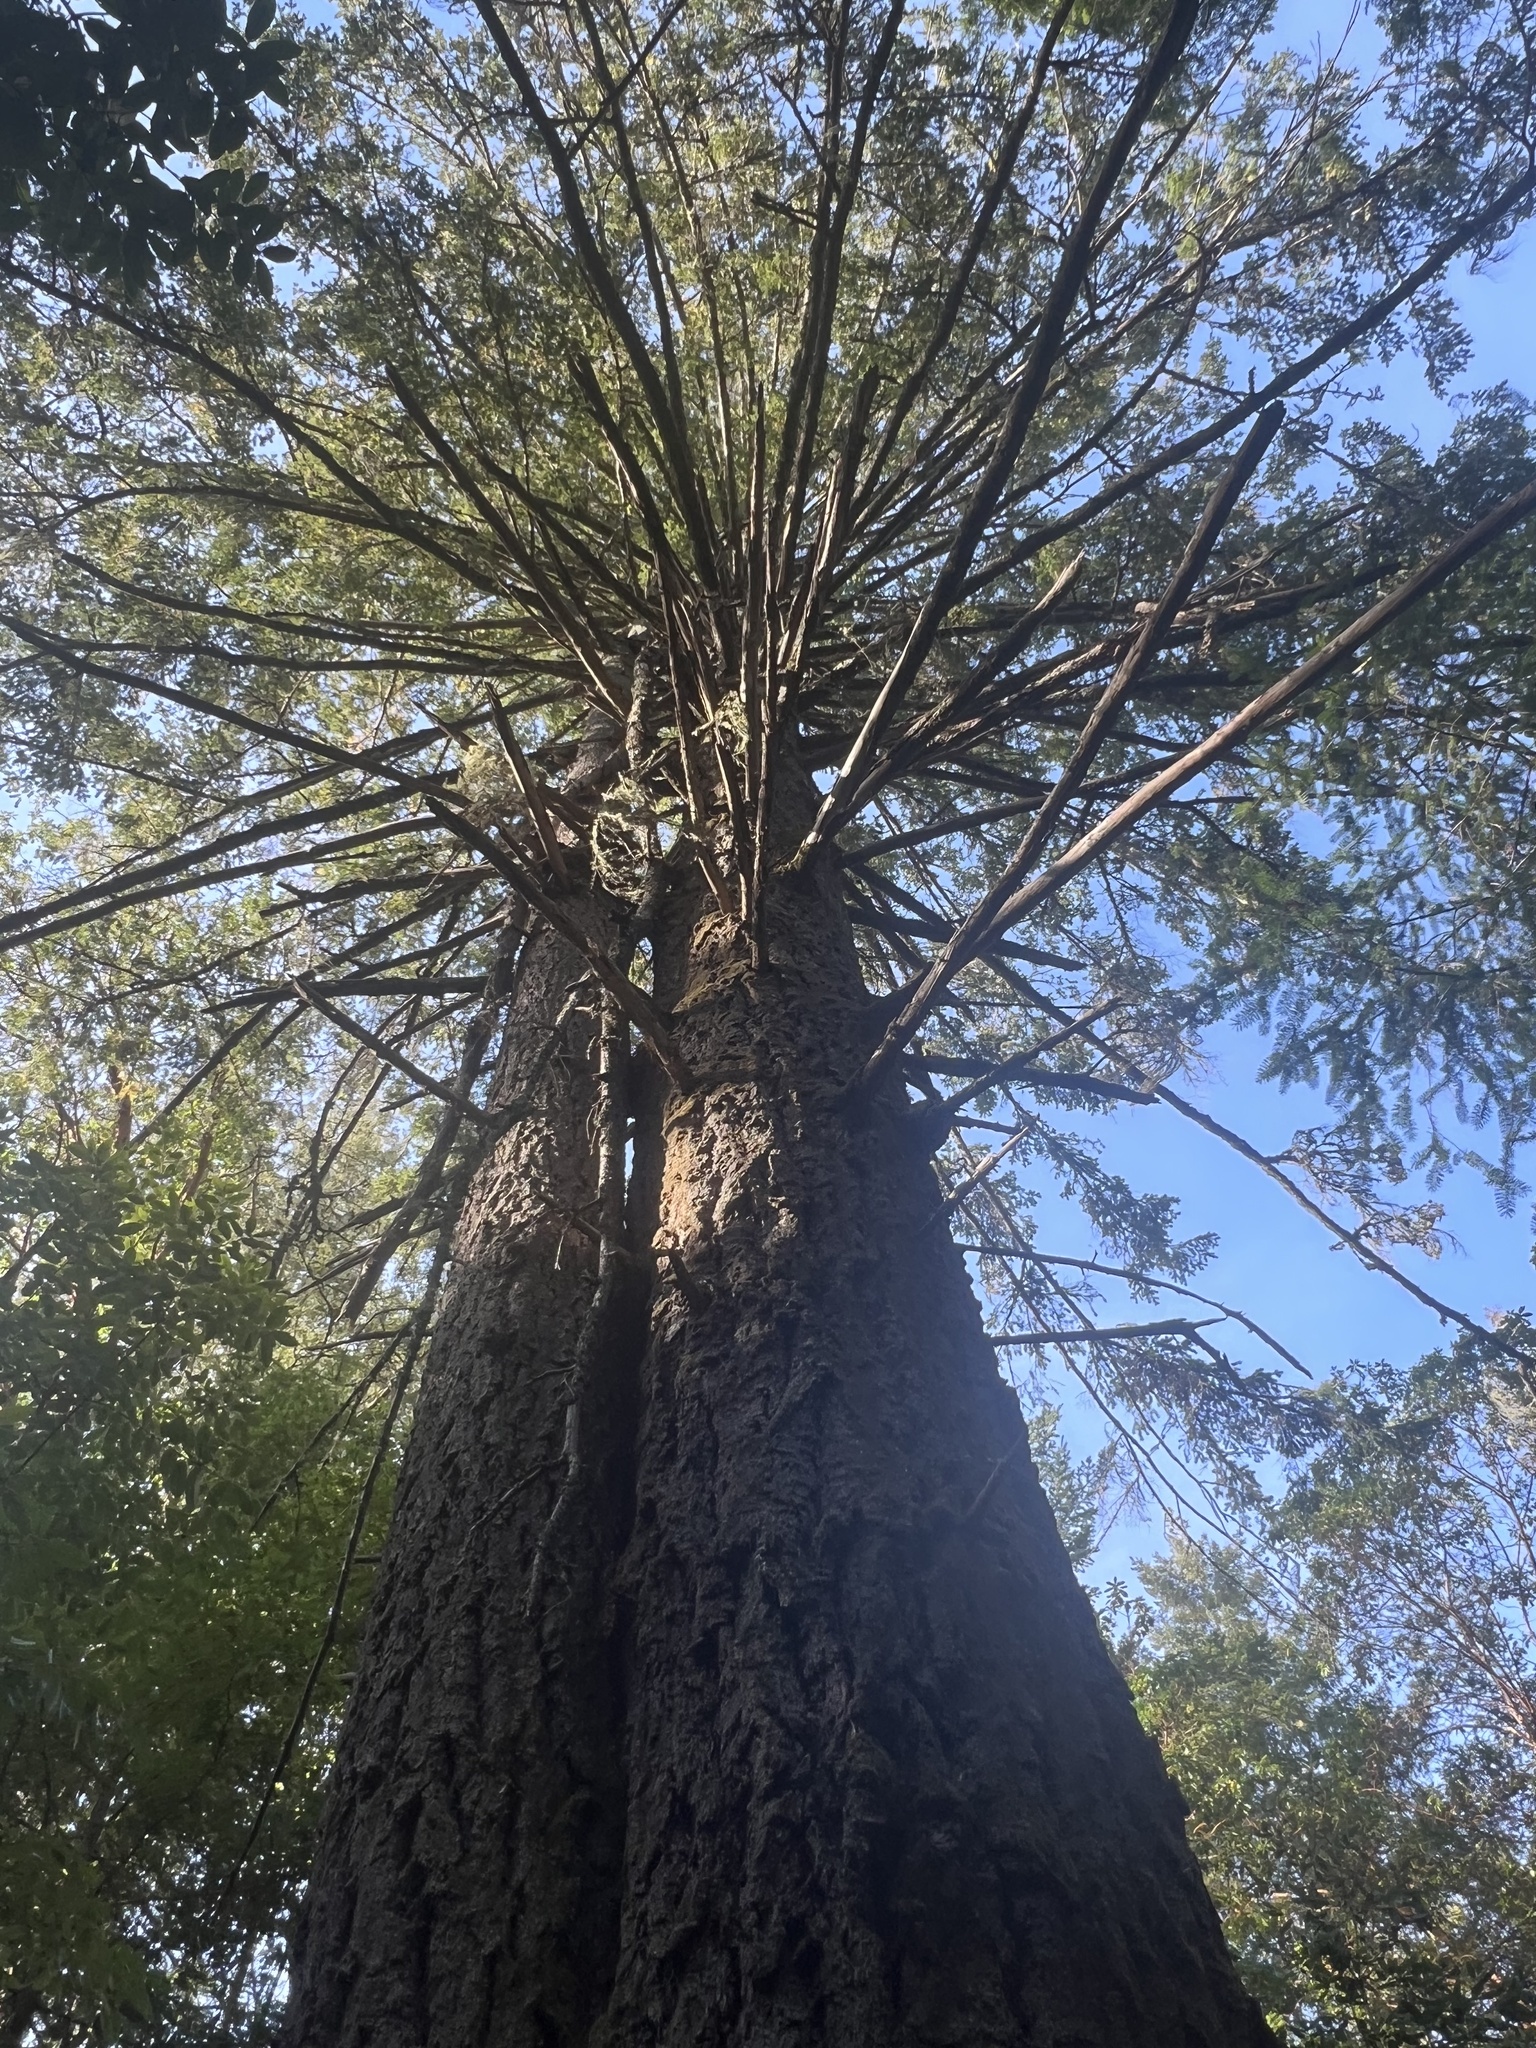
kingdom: Plantae
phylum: Tracheophyta
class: Pinopsida
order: Pinales
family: Pinaceae
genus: Pseudotsuga
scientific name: Pseudotsuga menziesii
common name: Douglas fir
